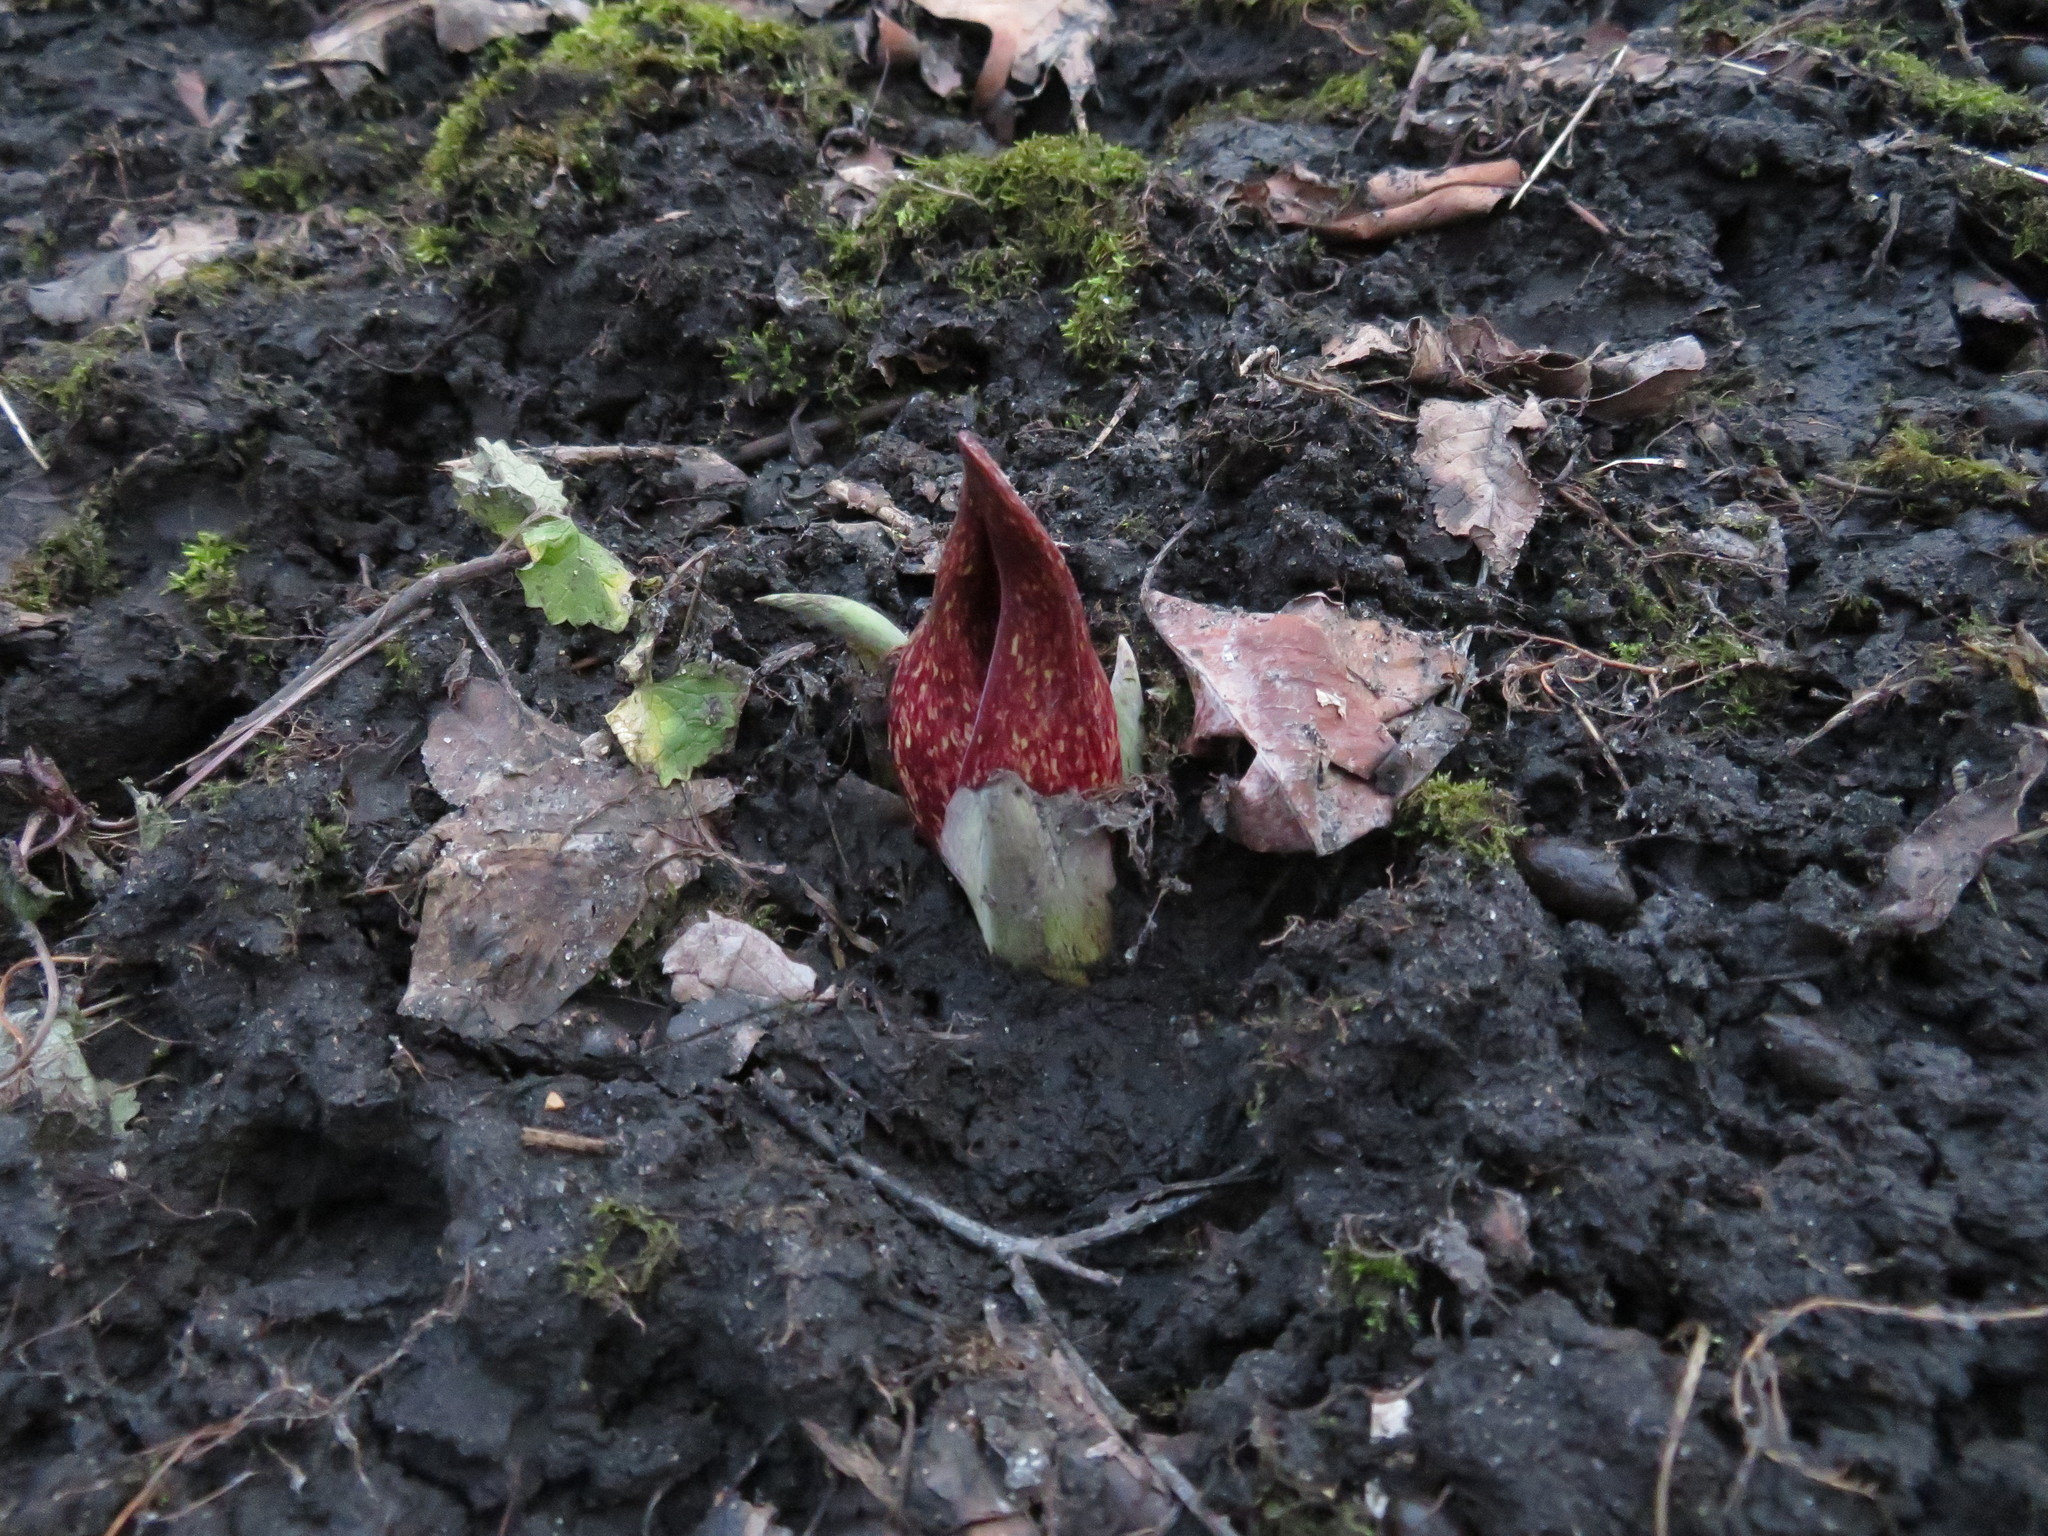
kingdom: Plantae
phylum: Tracheophyta
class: Liliopsida
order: Alismatales
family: Araceae
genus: Symplocarpus
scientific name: Symplocarpus foetidus
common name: Eastern skunk cabbage
